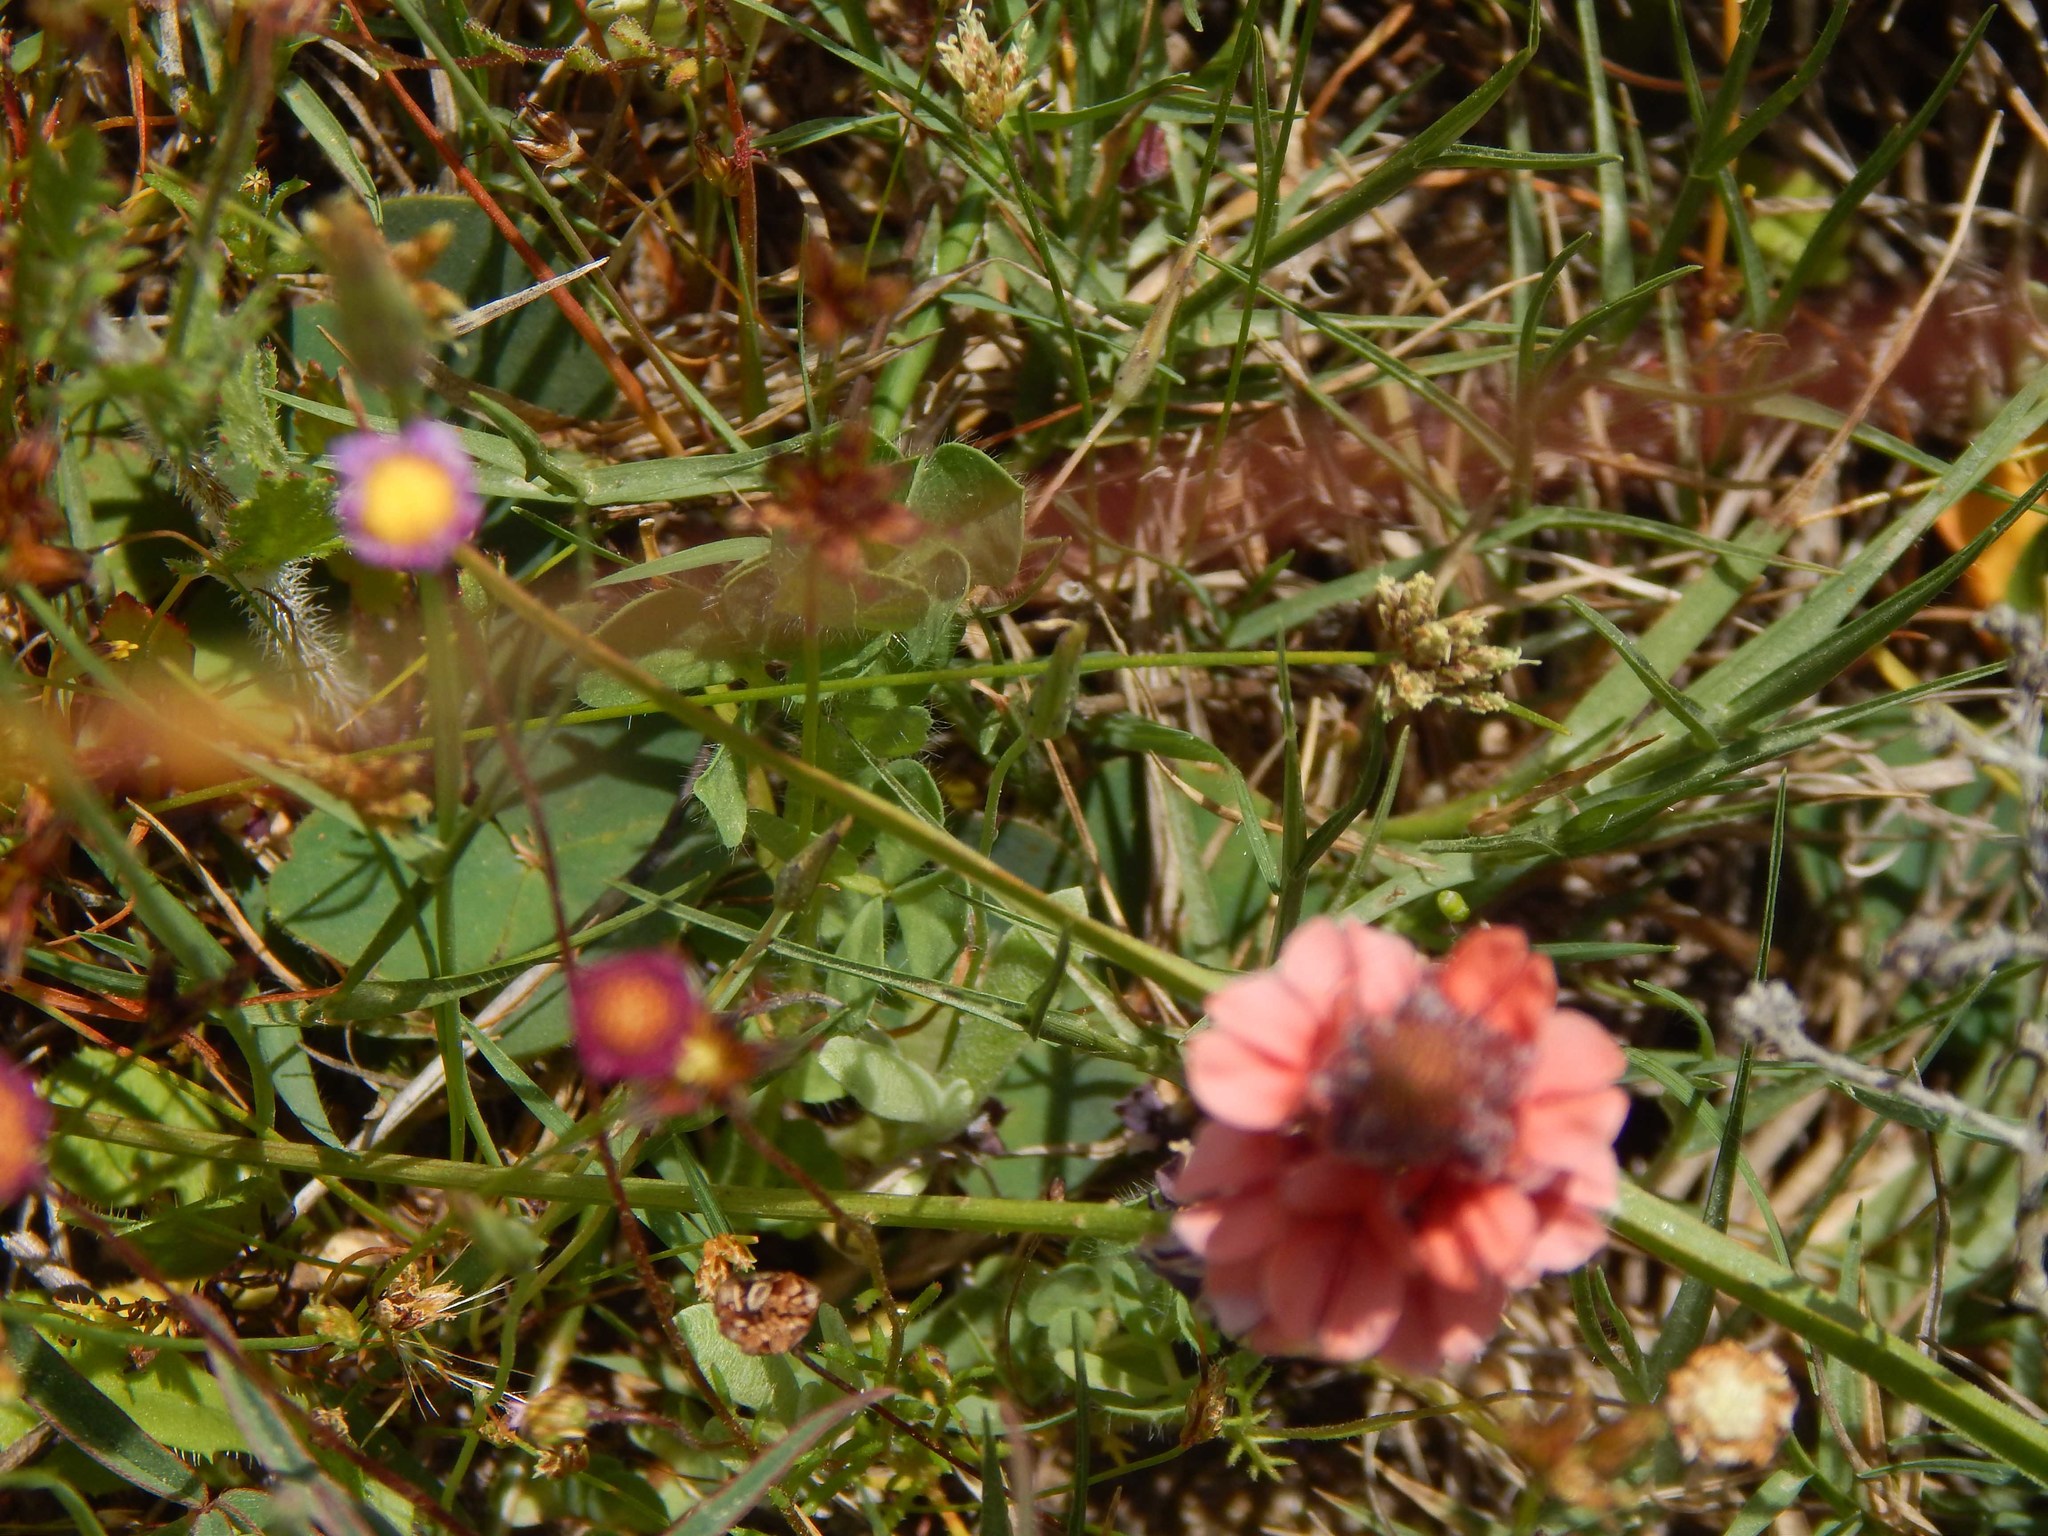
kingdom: Plantae
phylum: Tracheophyta
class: Magnoliopsida
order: Fabales
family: Fabaceae
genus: Indigofera
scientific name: Indigofera psoraloides
